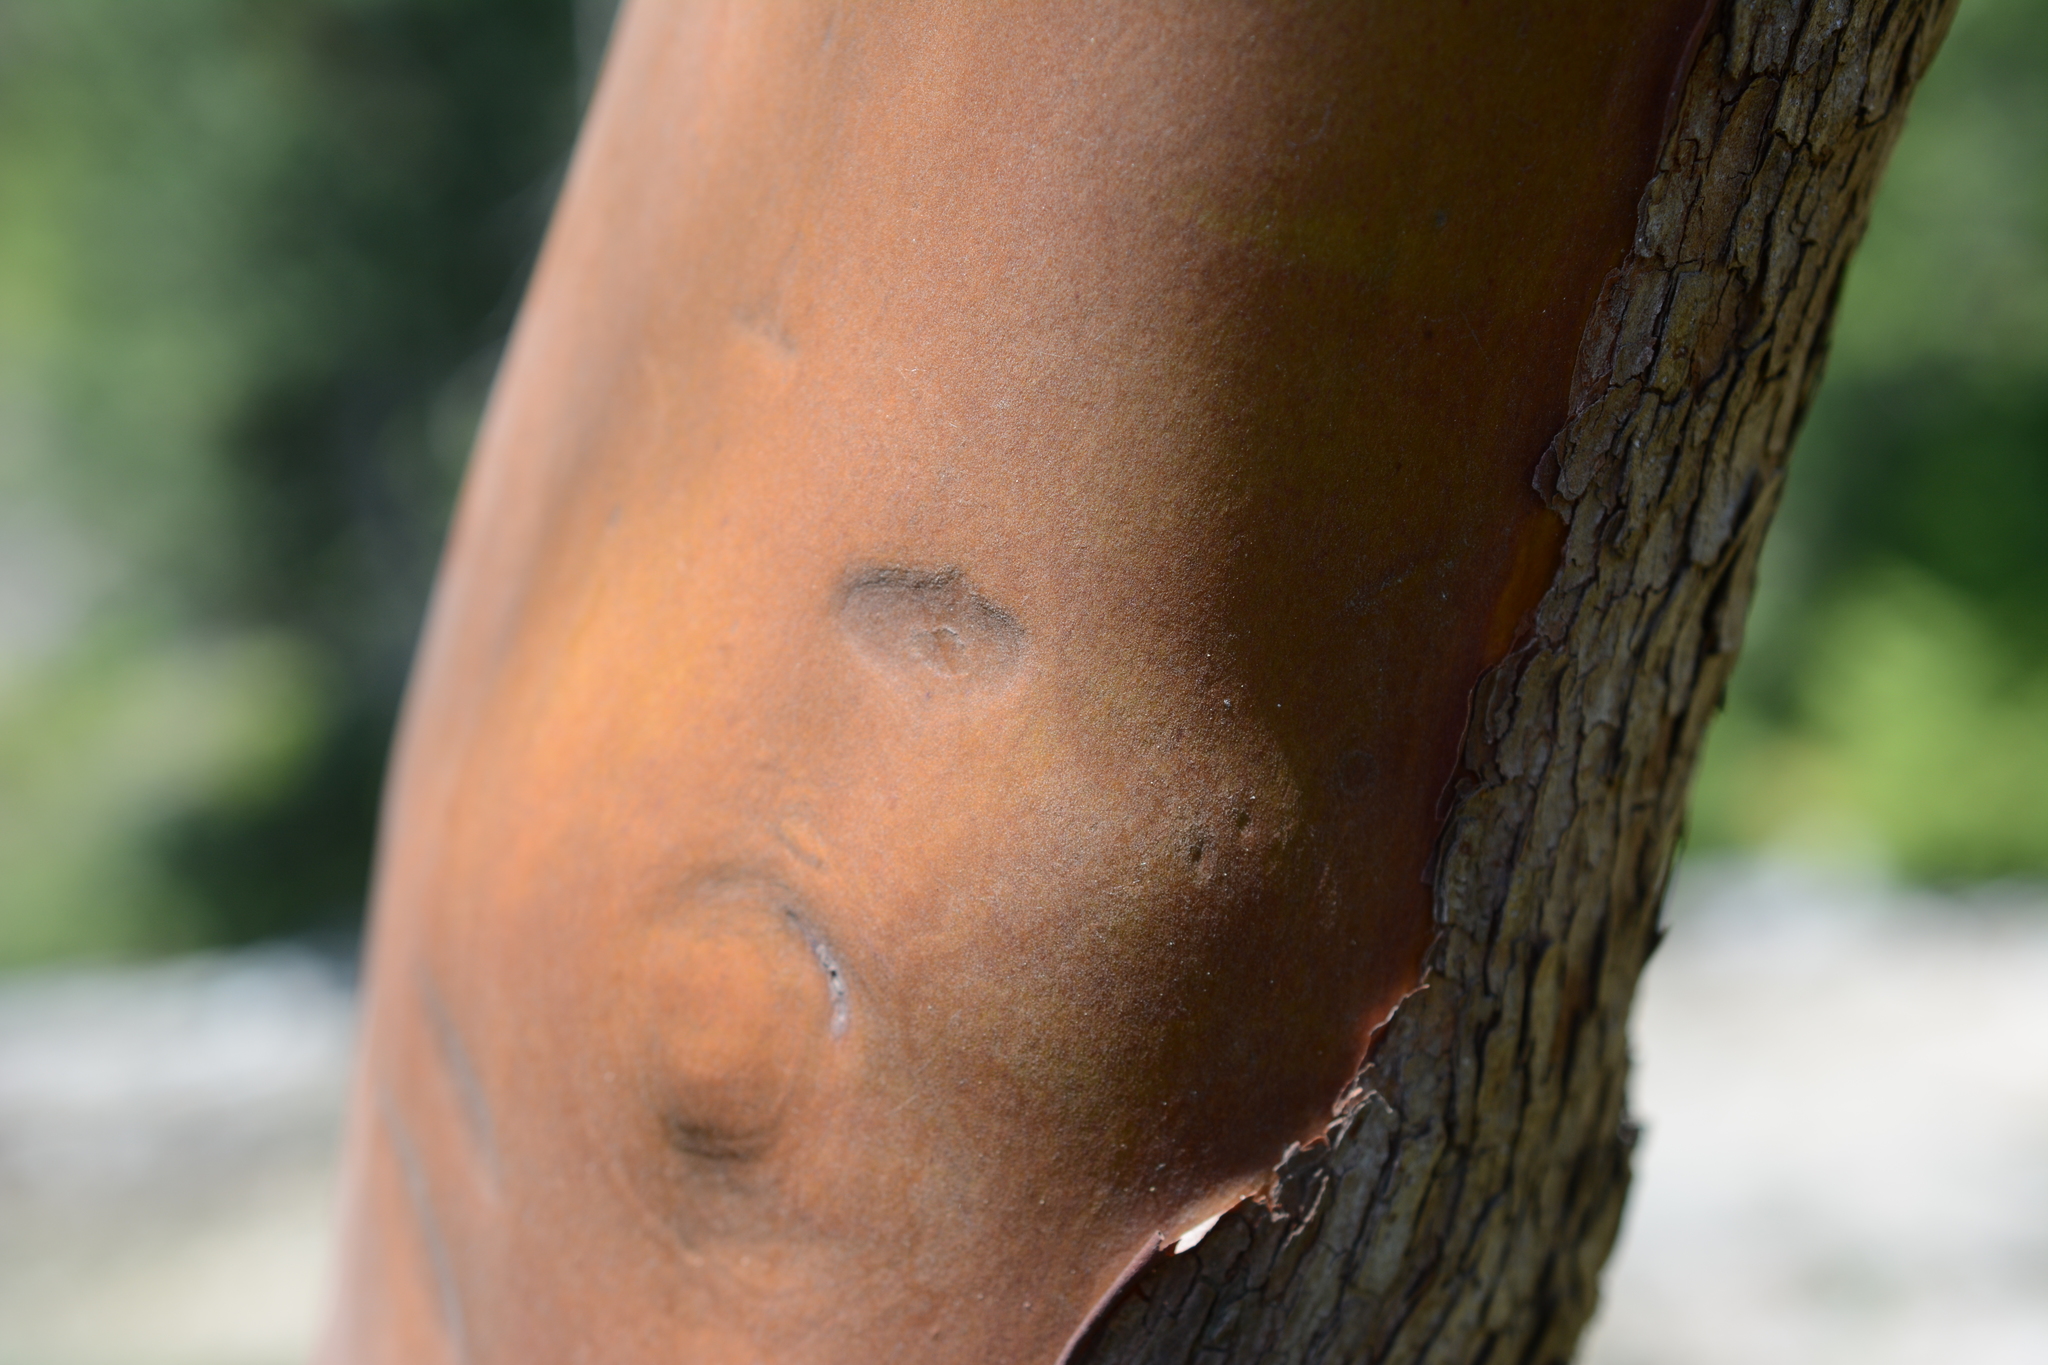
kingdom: Plantae
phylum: Tracheophyta
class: Magnoliopsida
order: Ericales
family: Ericaceae
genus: Arbutus
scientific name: Arbutus menziesii
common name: Pacific madrone
